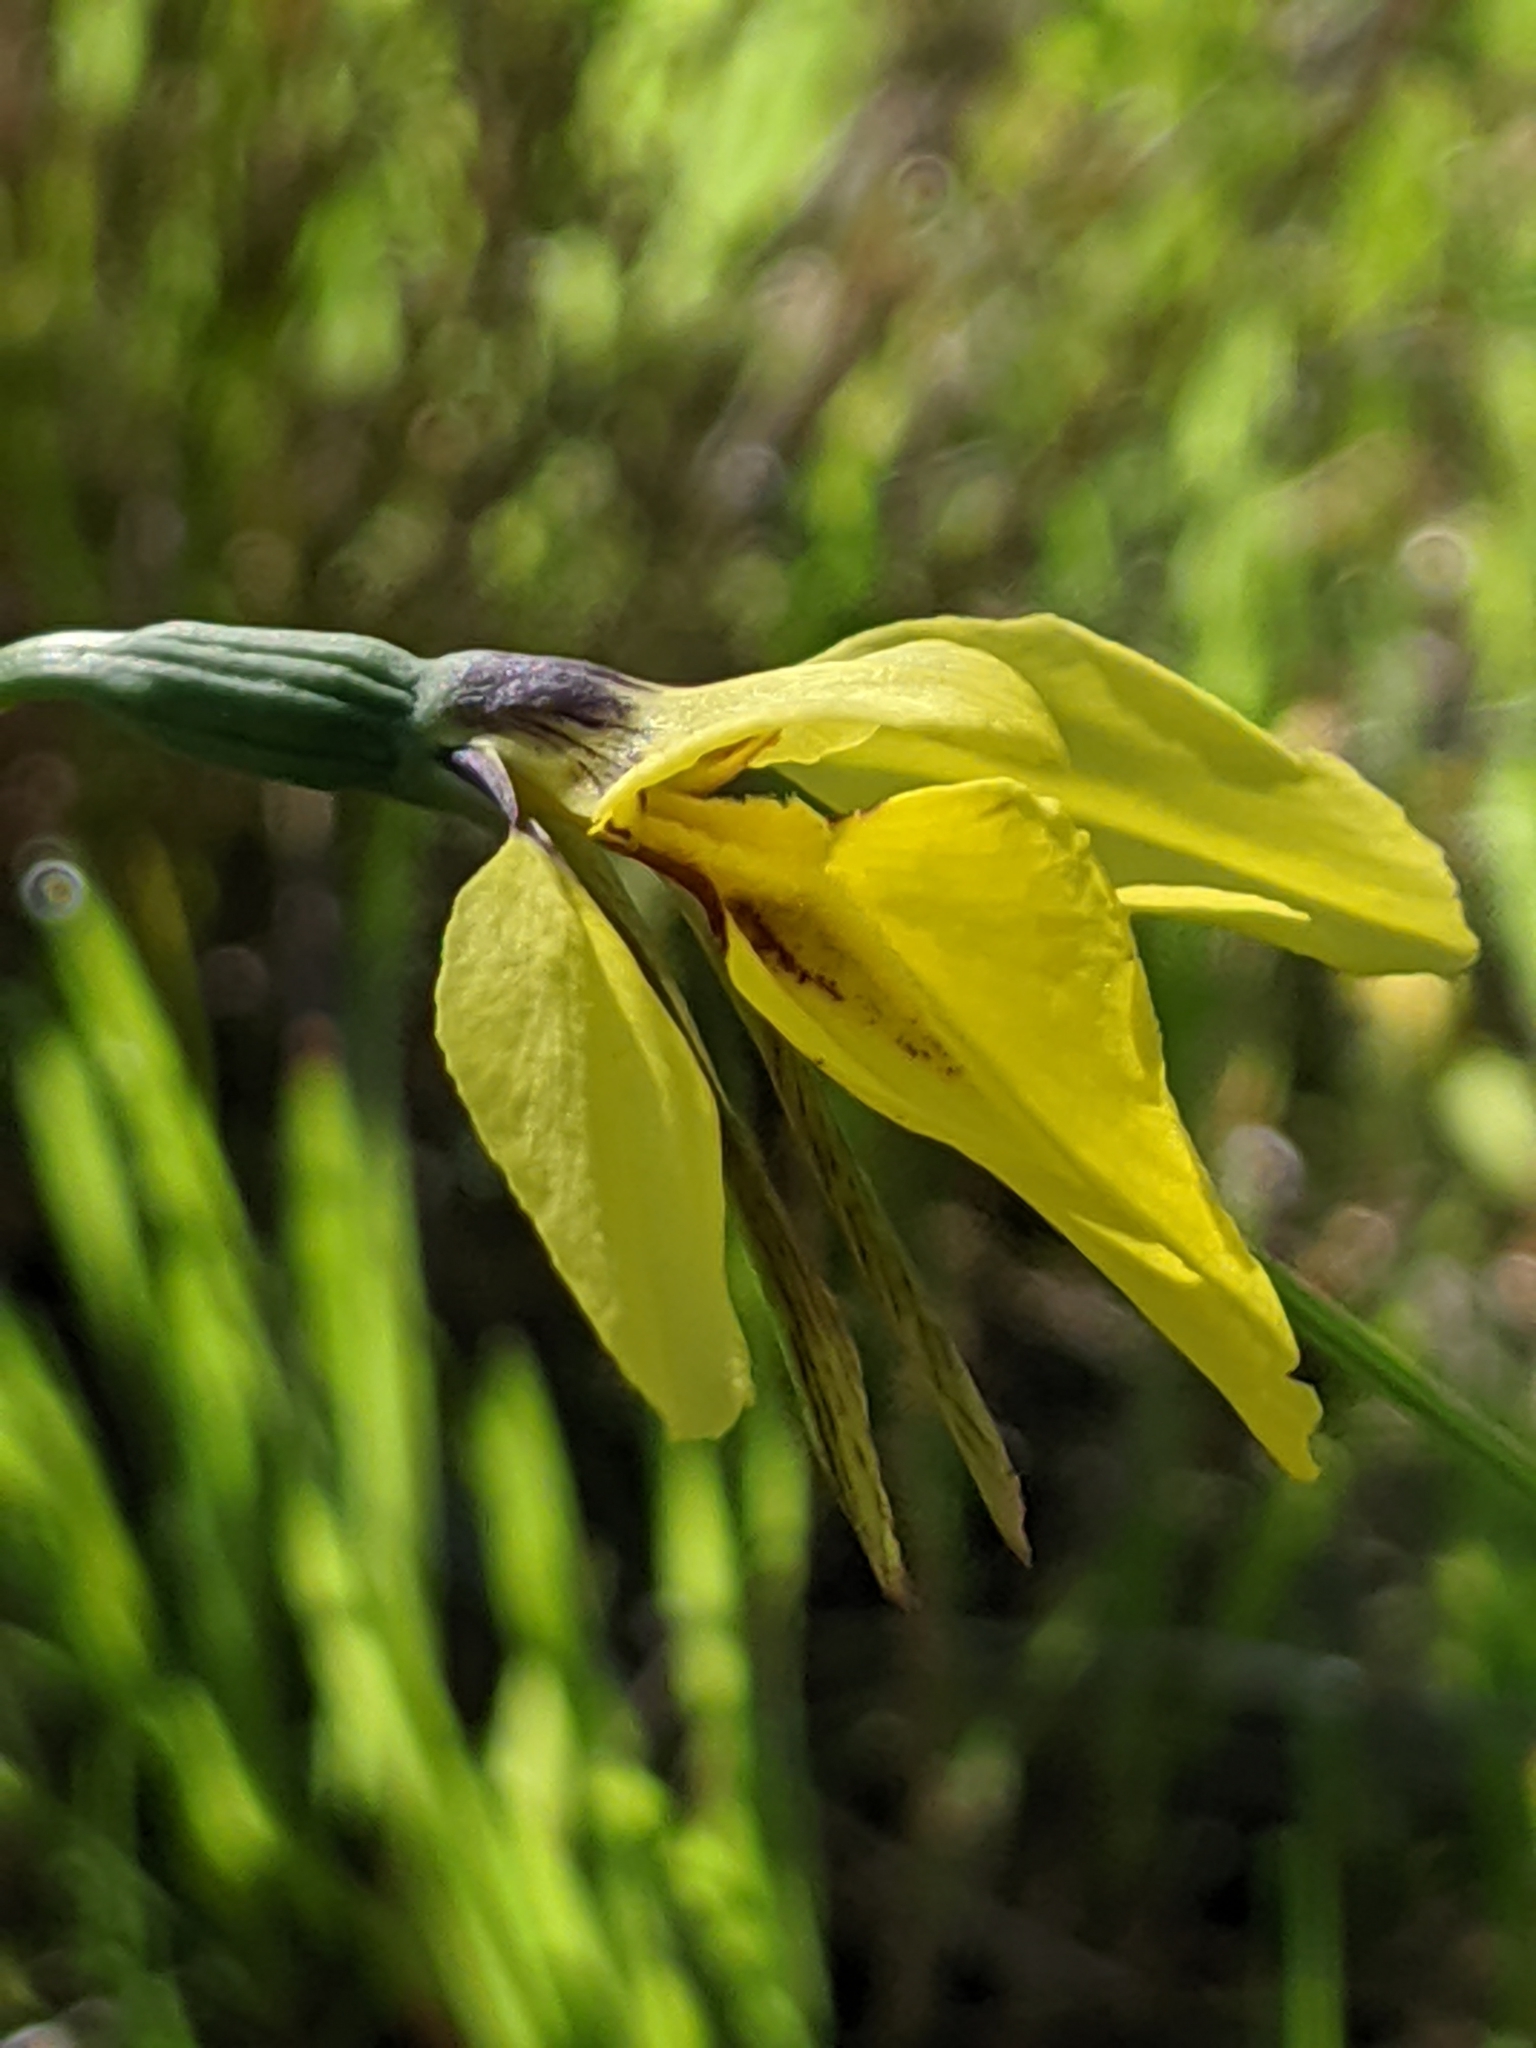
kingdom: Plantae
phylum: Tracheophyta
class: Liliopsida
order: Asparagales
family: Orchidaceae
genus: Diuris
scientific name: Diuris chryseopsis
